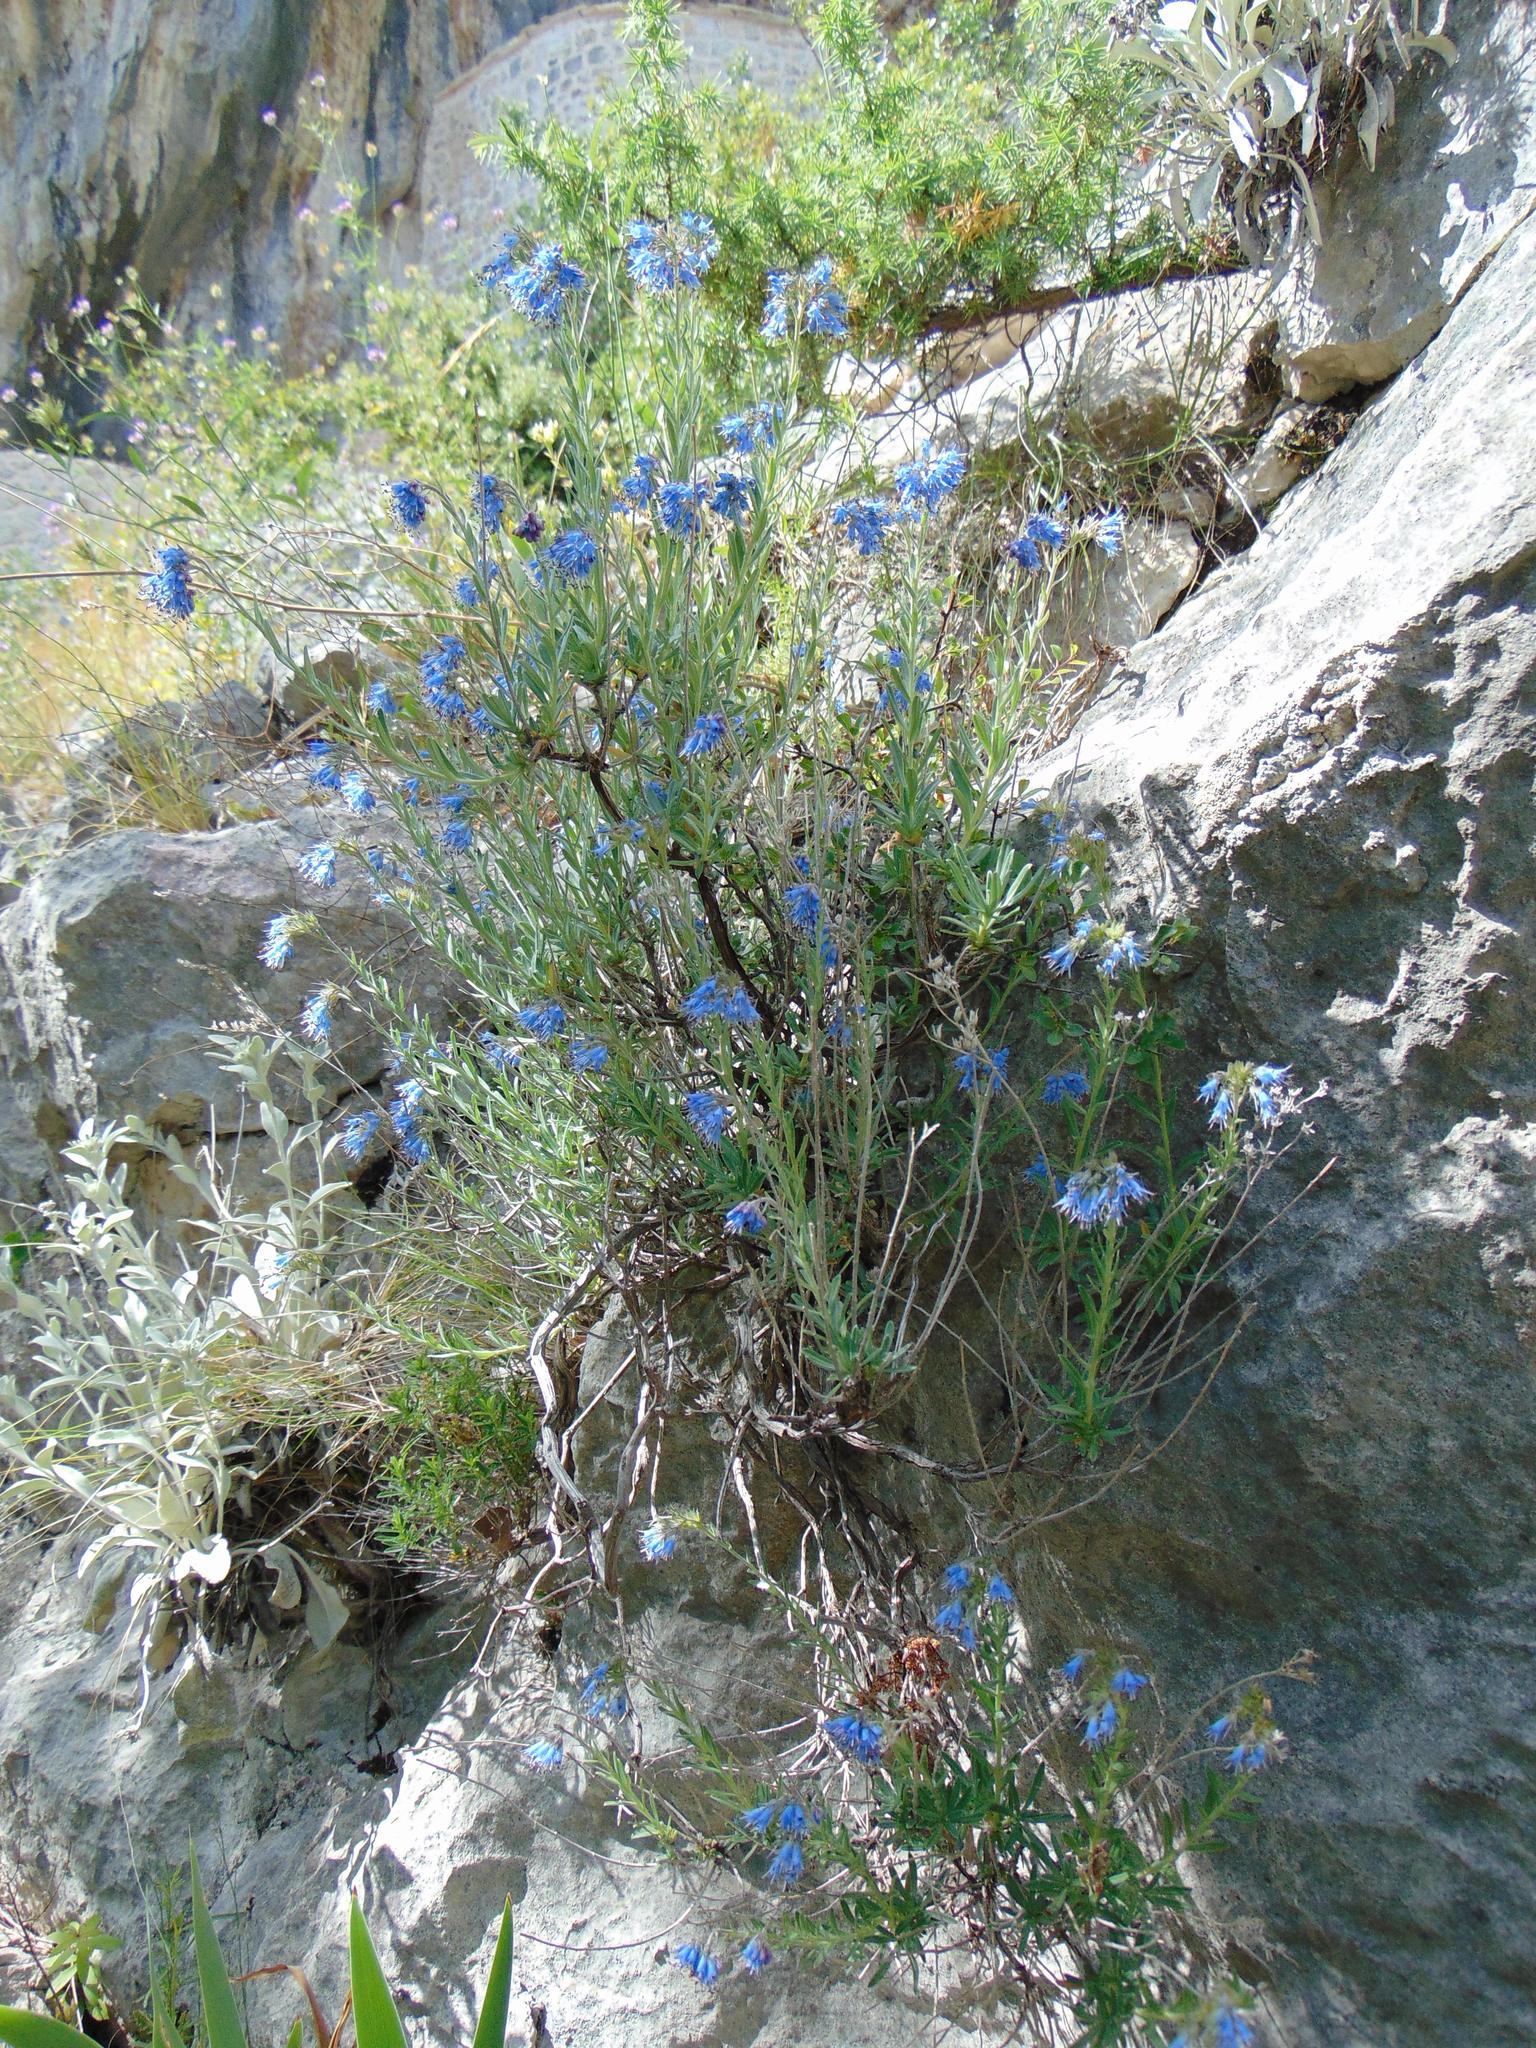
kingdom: Plantae
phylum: Tracheophyta
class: Magnoliopsida
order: Boraginales
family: Boraginaceae
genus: Moltkia
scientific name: Moltkia petraea
